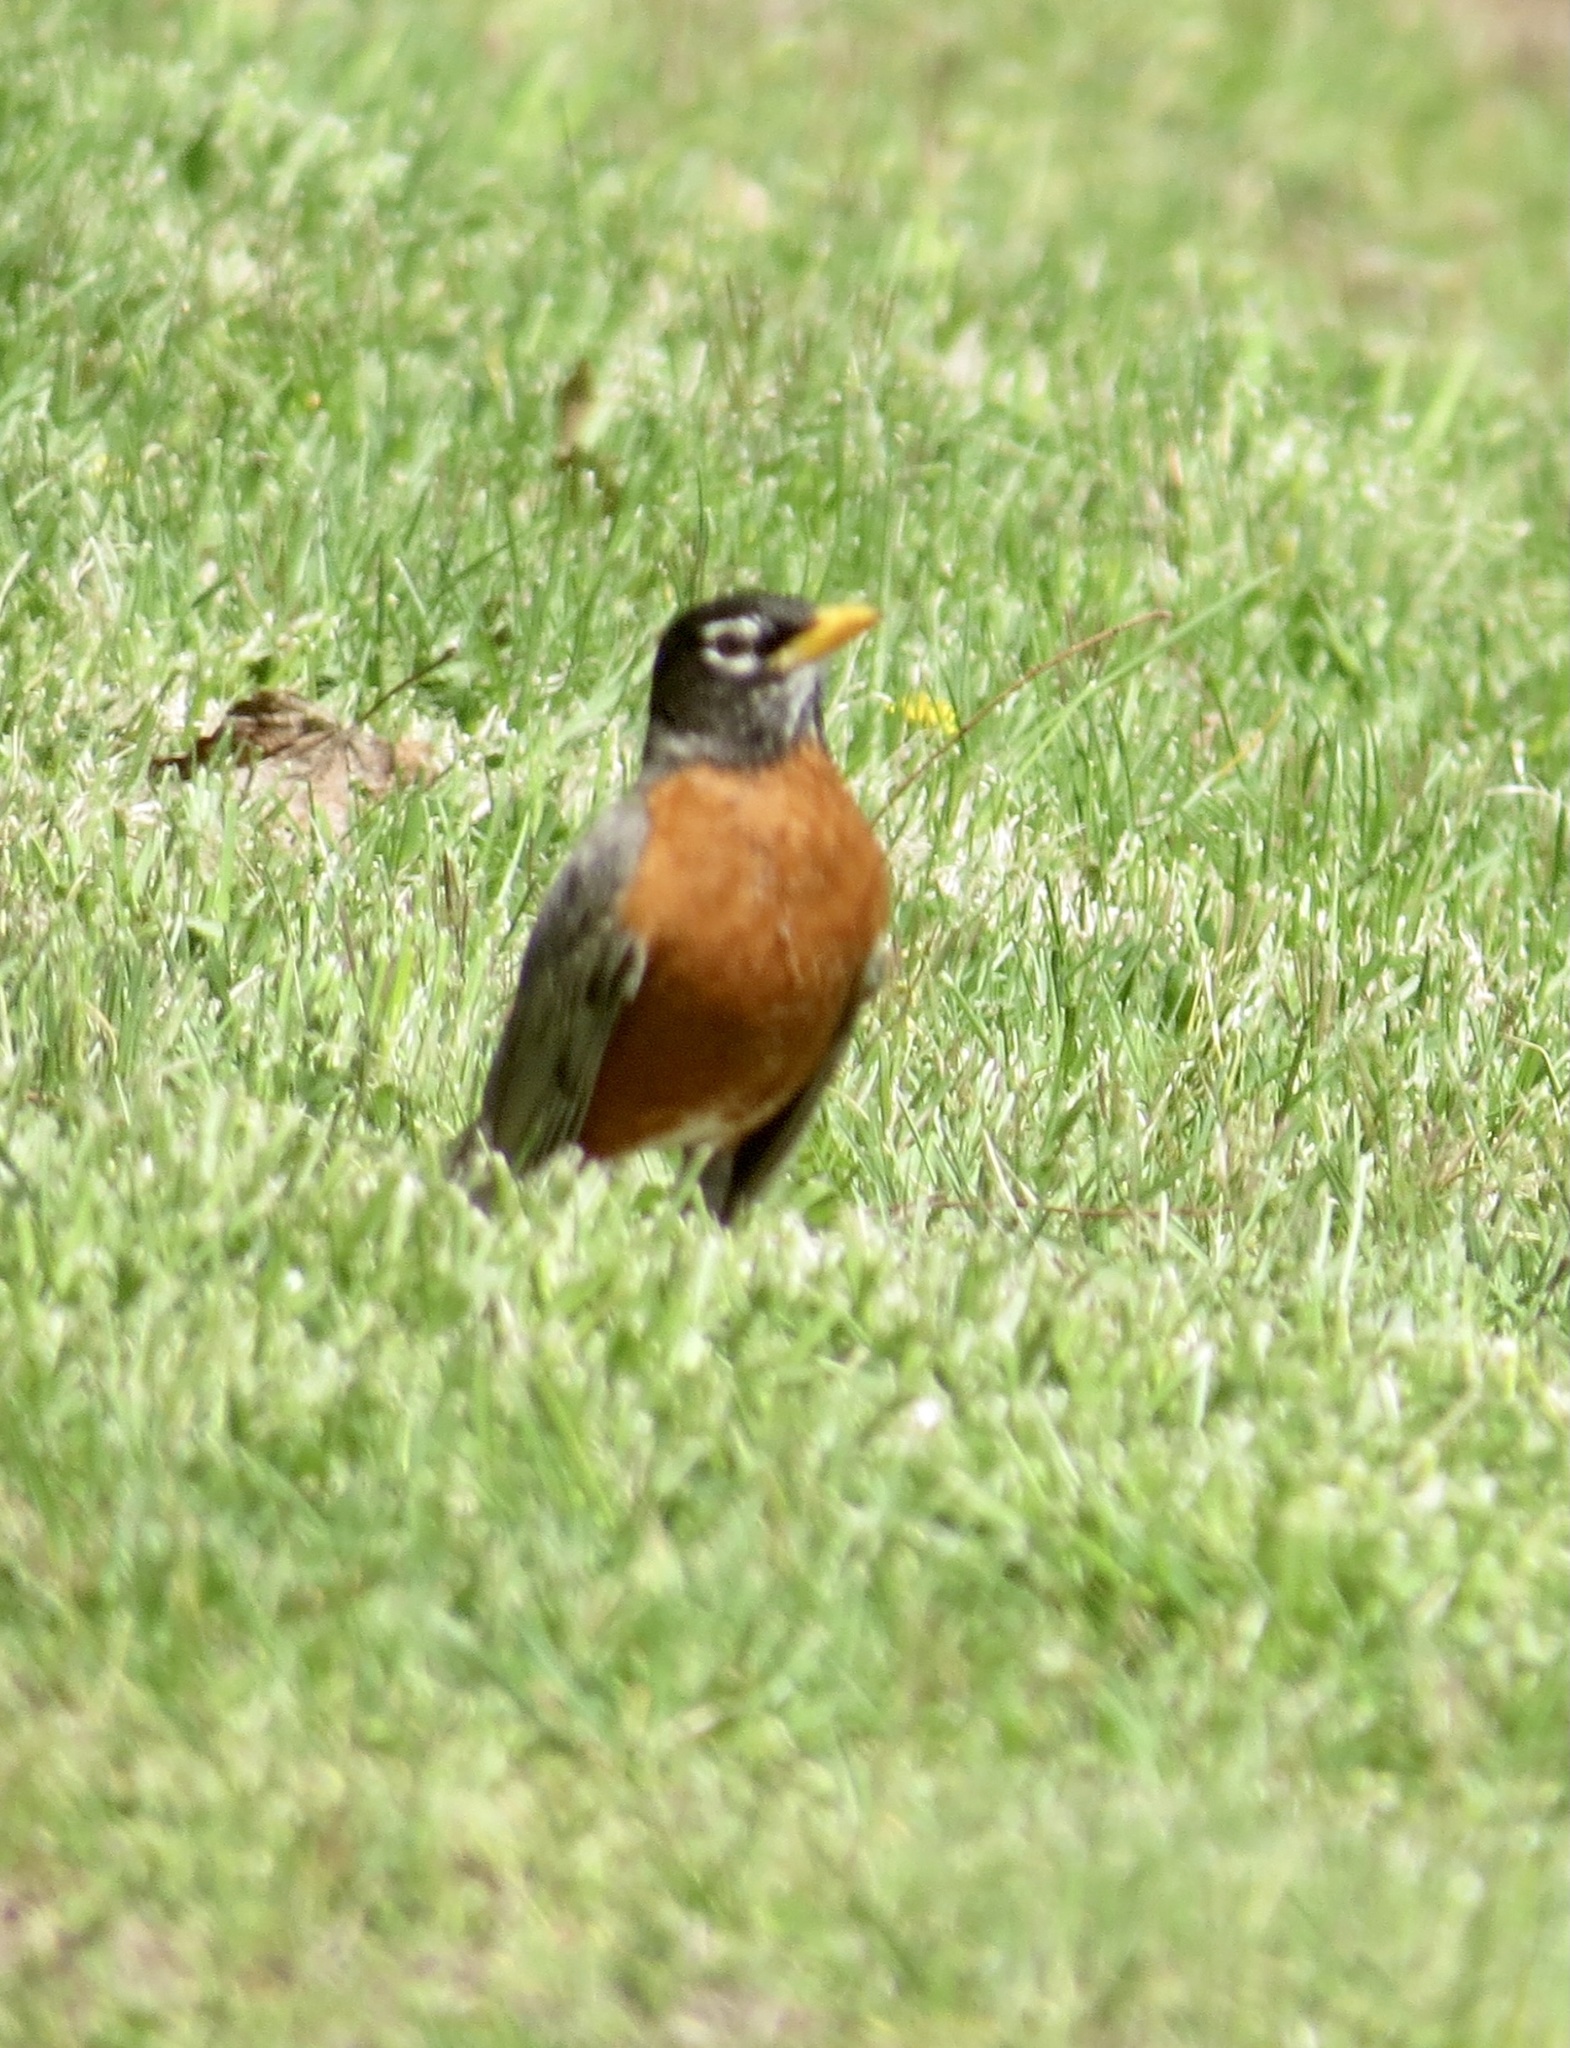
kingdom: Animalia
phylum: Chordata
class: Aves
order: Passeriformes
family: Turdidae
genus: Turdus
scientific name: Turdus migratorius
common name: American robin
